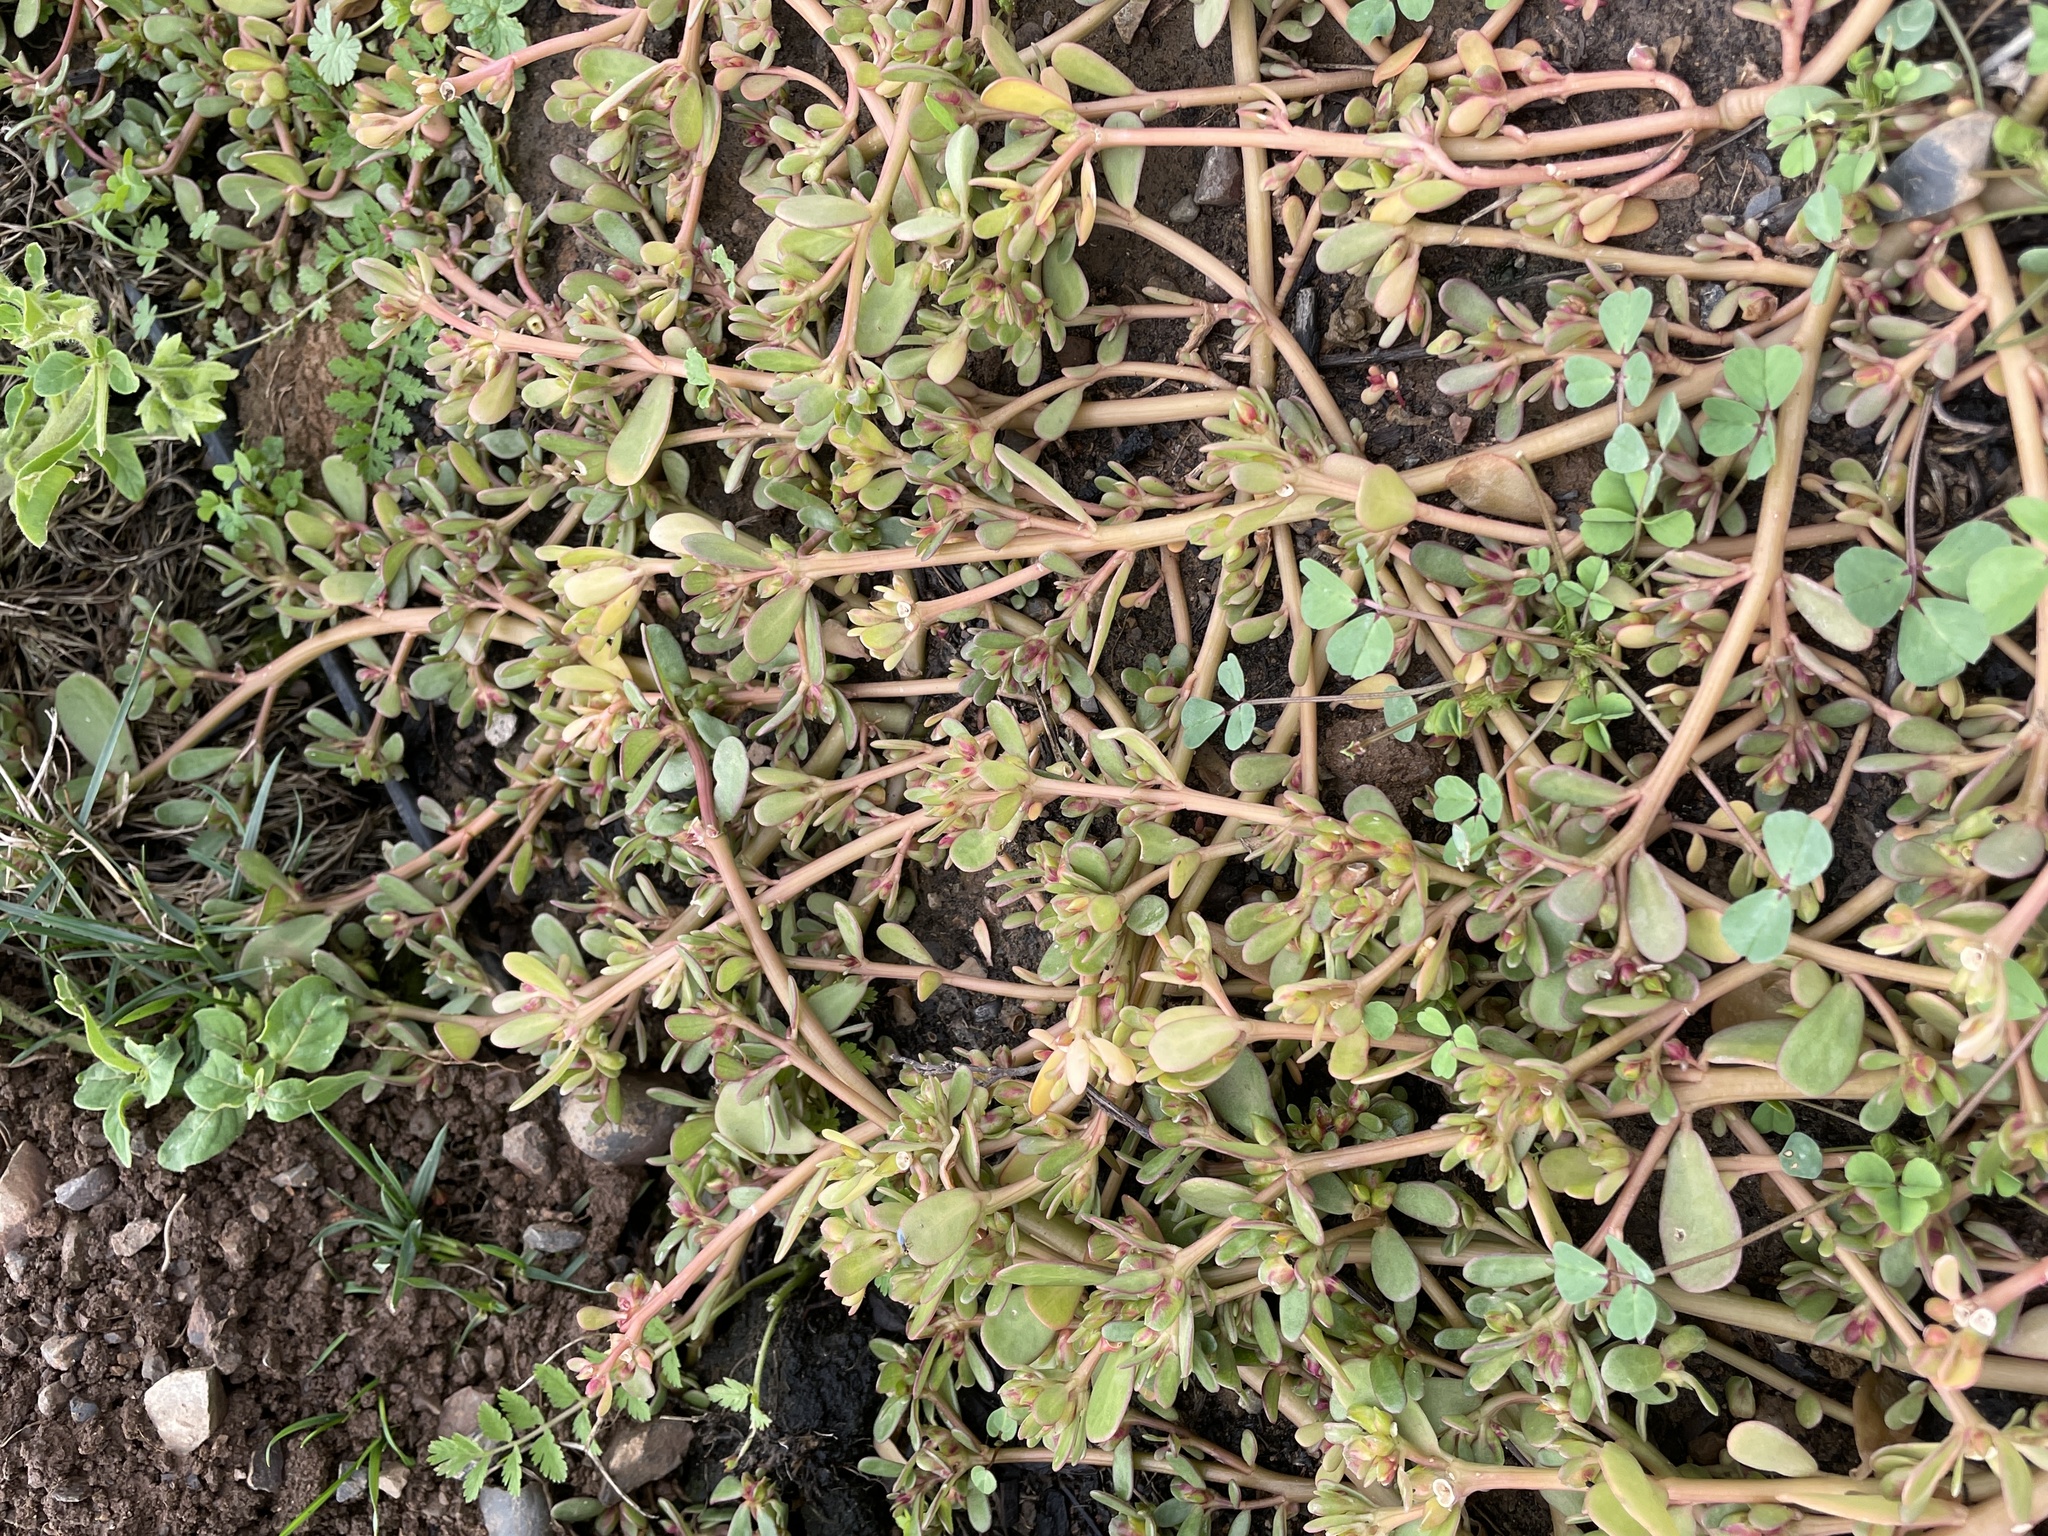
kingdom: Plantae
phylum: Tracheophyta
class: Magnoliopsida
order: Caryophyllales
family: Portulacaceae
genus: Portulaca
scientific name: Portulaca oleracea
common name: Common purslane
